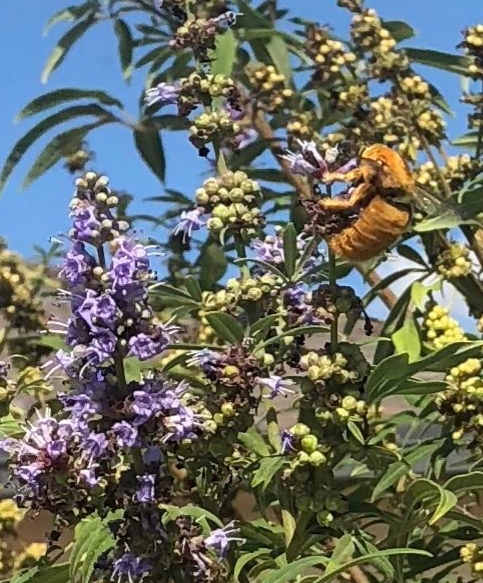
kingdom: Animalia
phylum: Arthropoda
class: Insecta
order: Hymenoptera
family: Apidae
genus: Xylocopa
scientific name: Xylocopa sonorina
